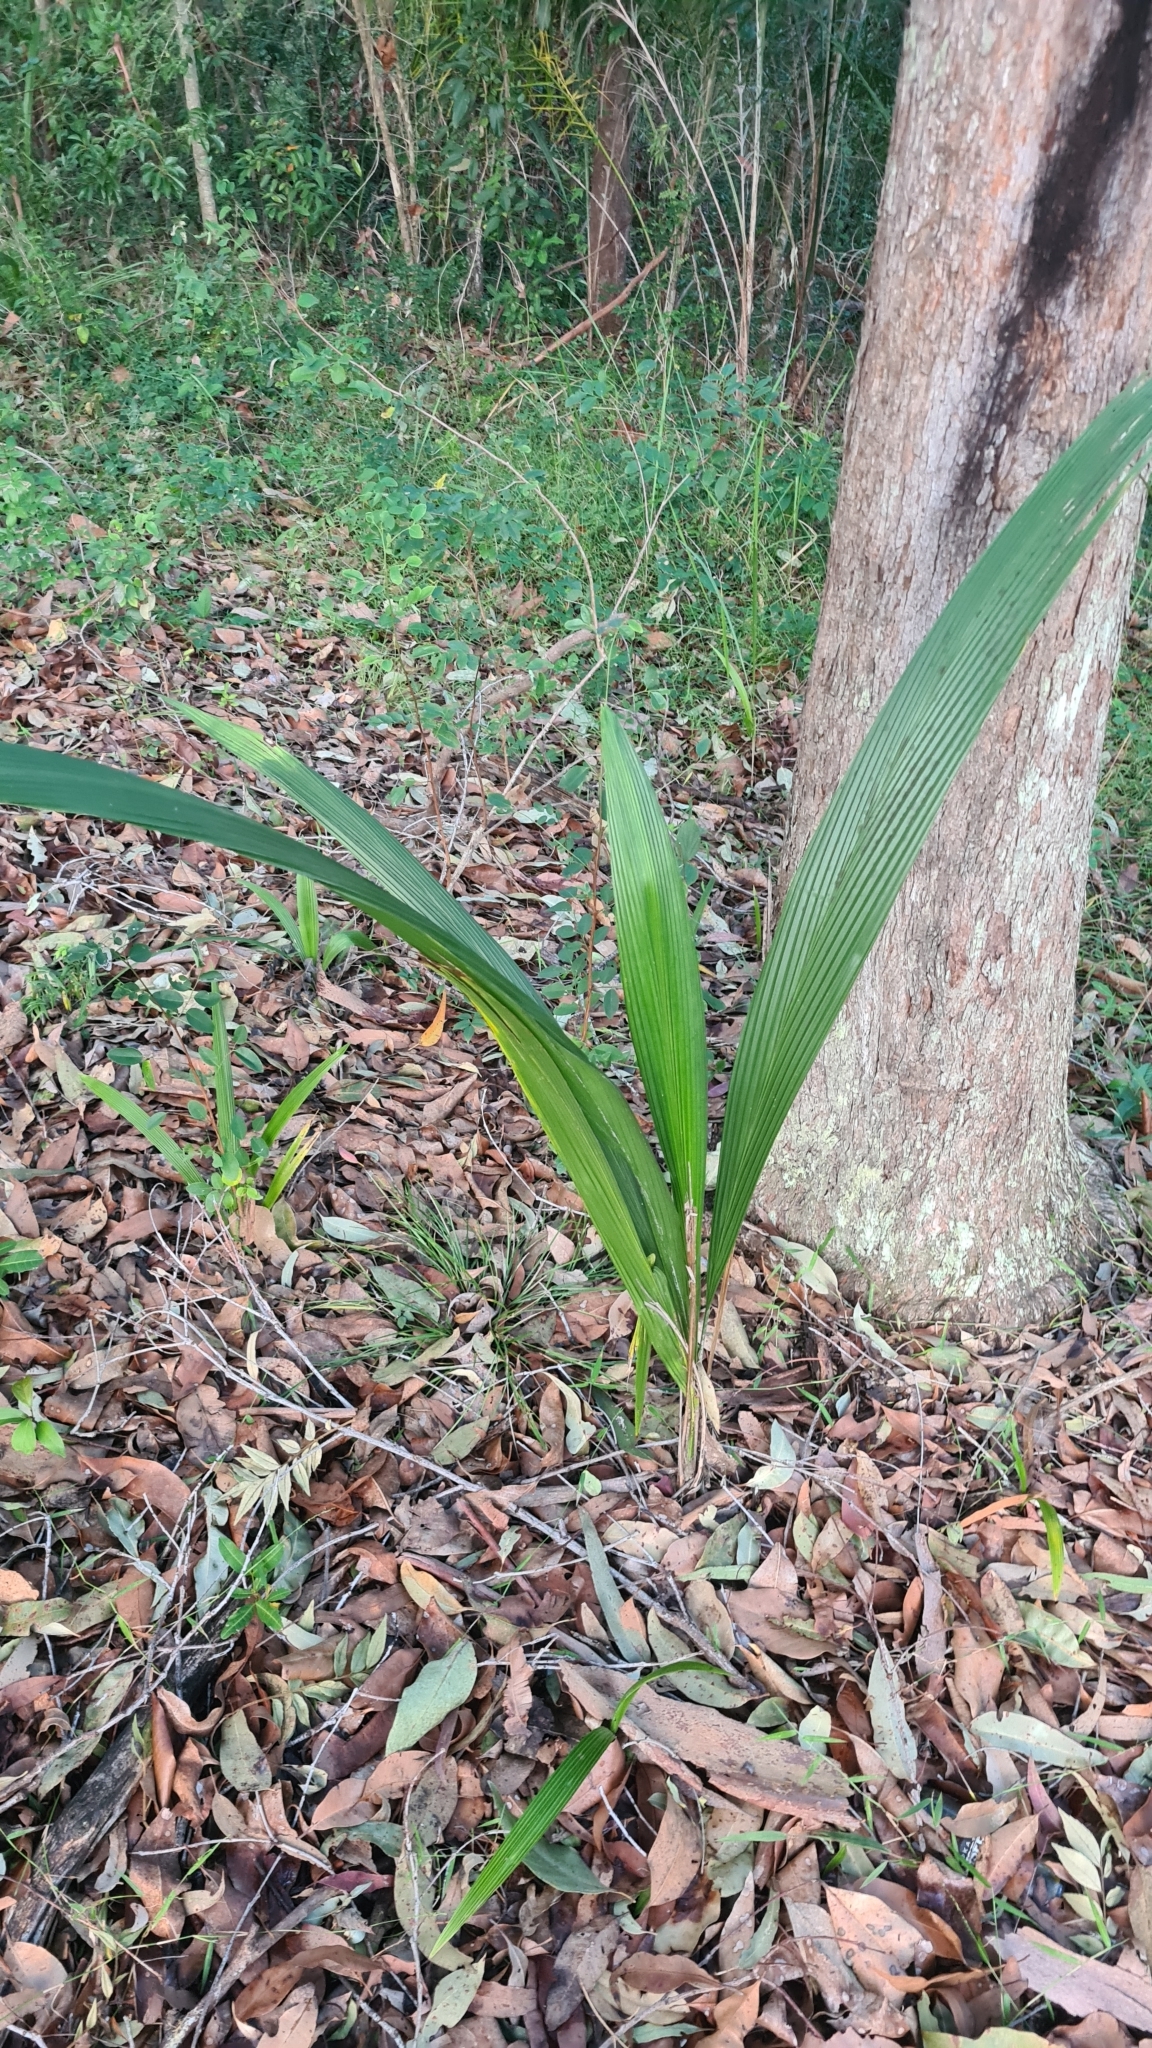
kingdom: Plantae
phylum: Tracheophyta
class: Liliopsida
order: Arecales
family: Arecaceae
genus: Syagrus
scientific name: Syagrus romanzoffiana
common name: Queen palm
